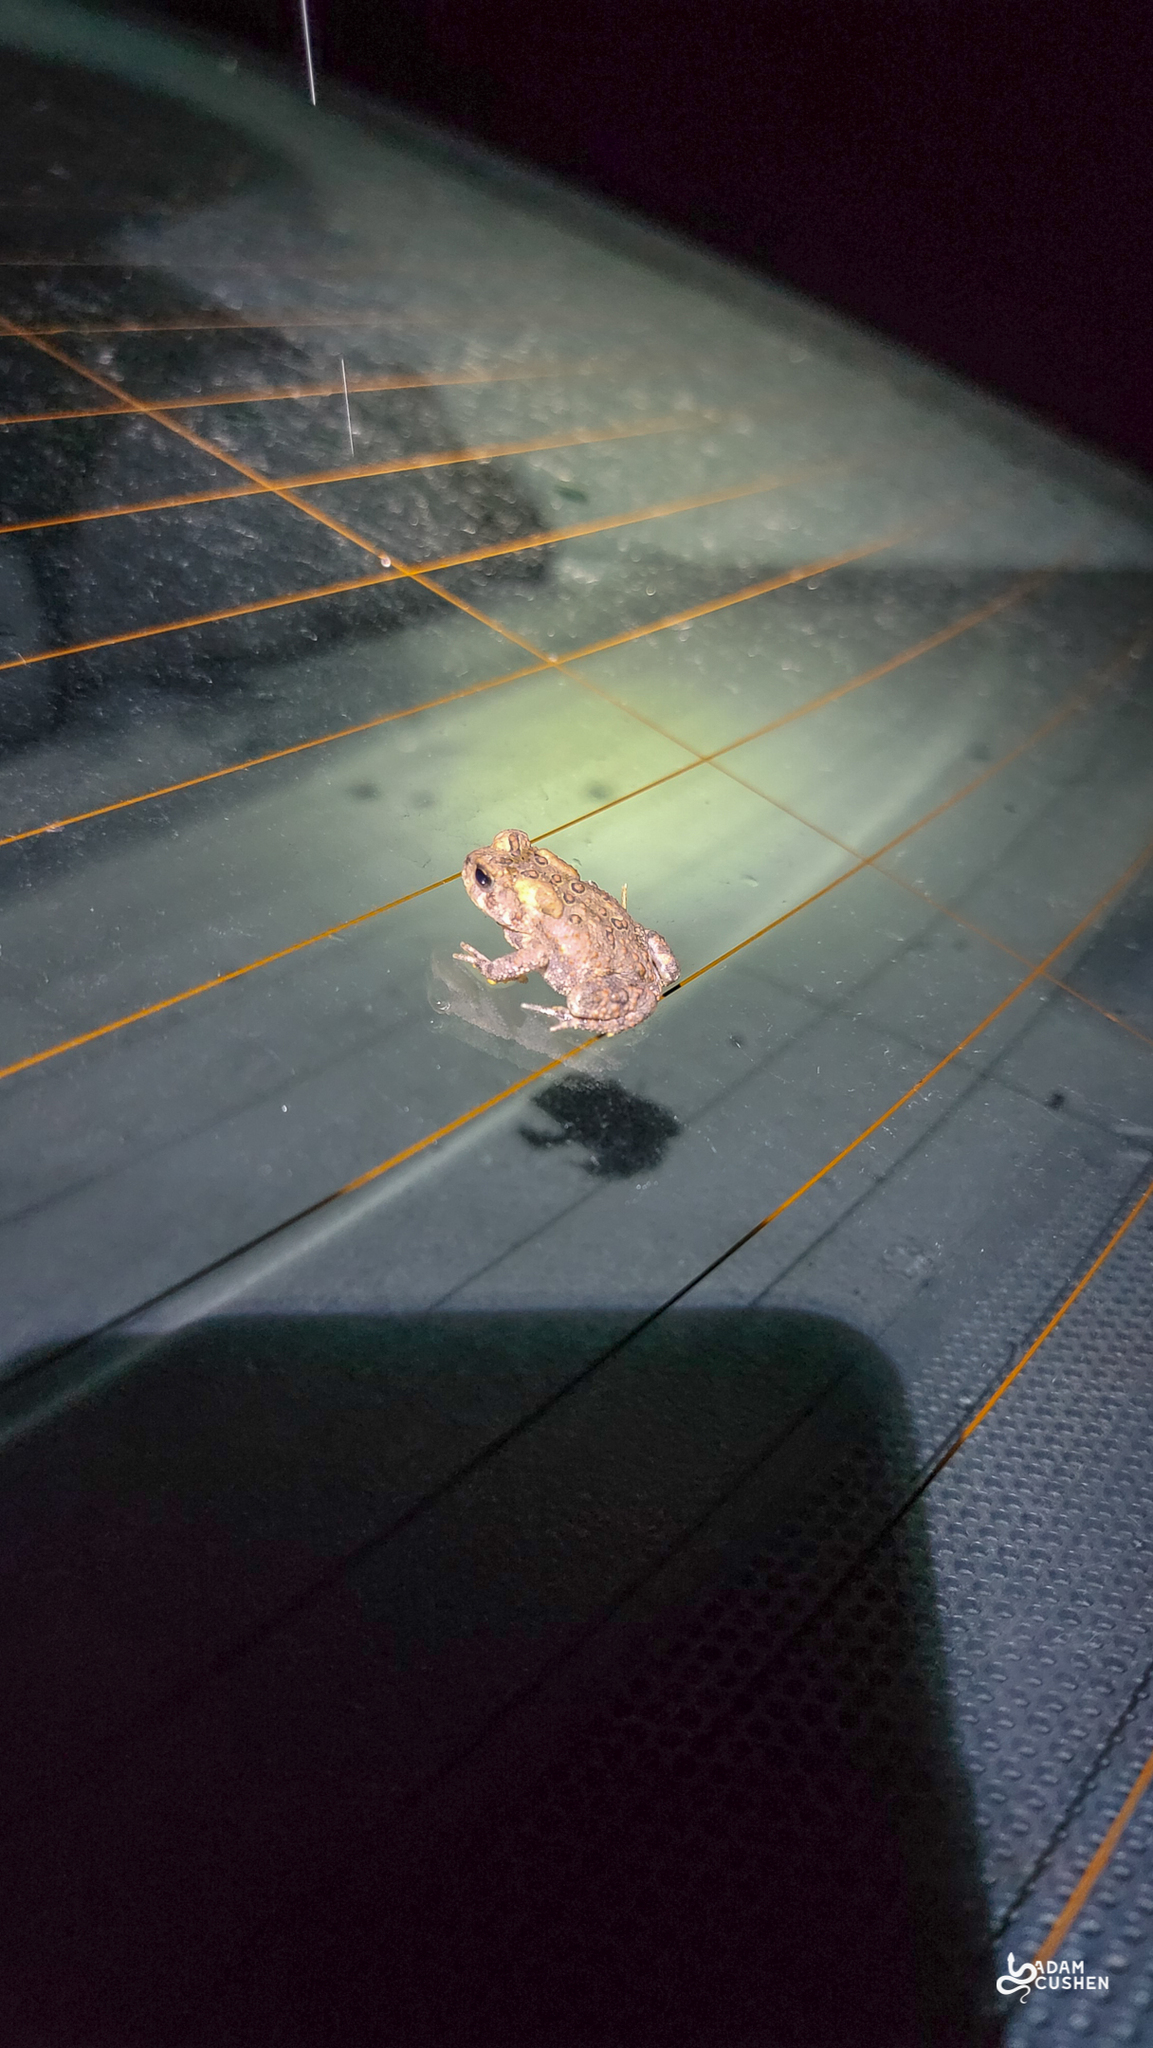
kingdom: Animalia
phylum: Chordata
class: Amphibia
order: Anura
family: Bufonidae
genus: Anaxyrus
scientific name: Anaxyrus americanus
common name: American toad
